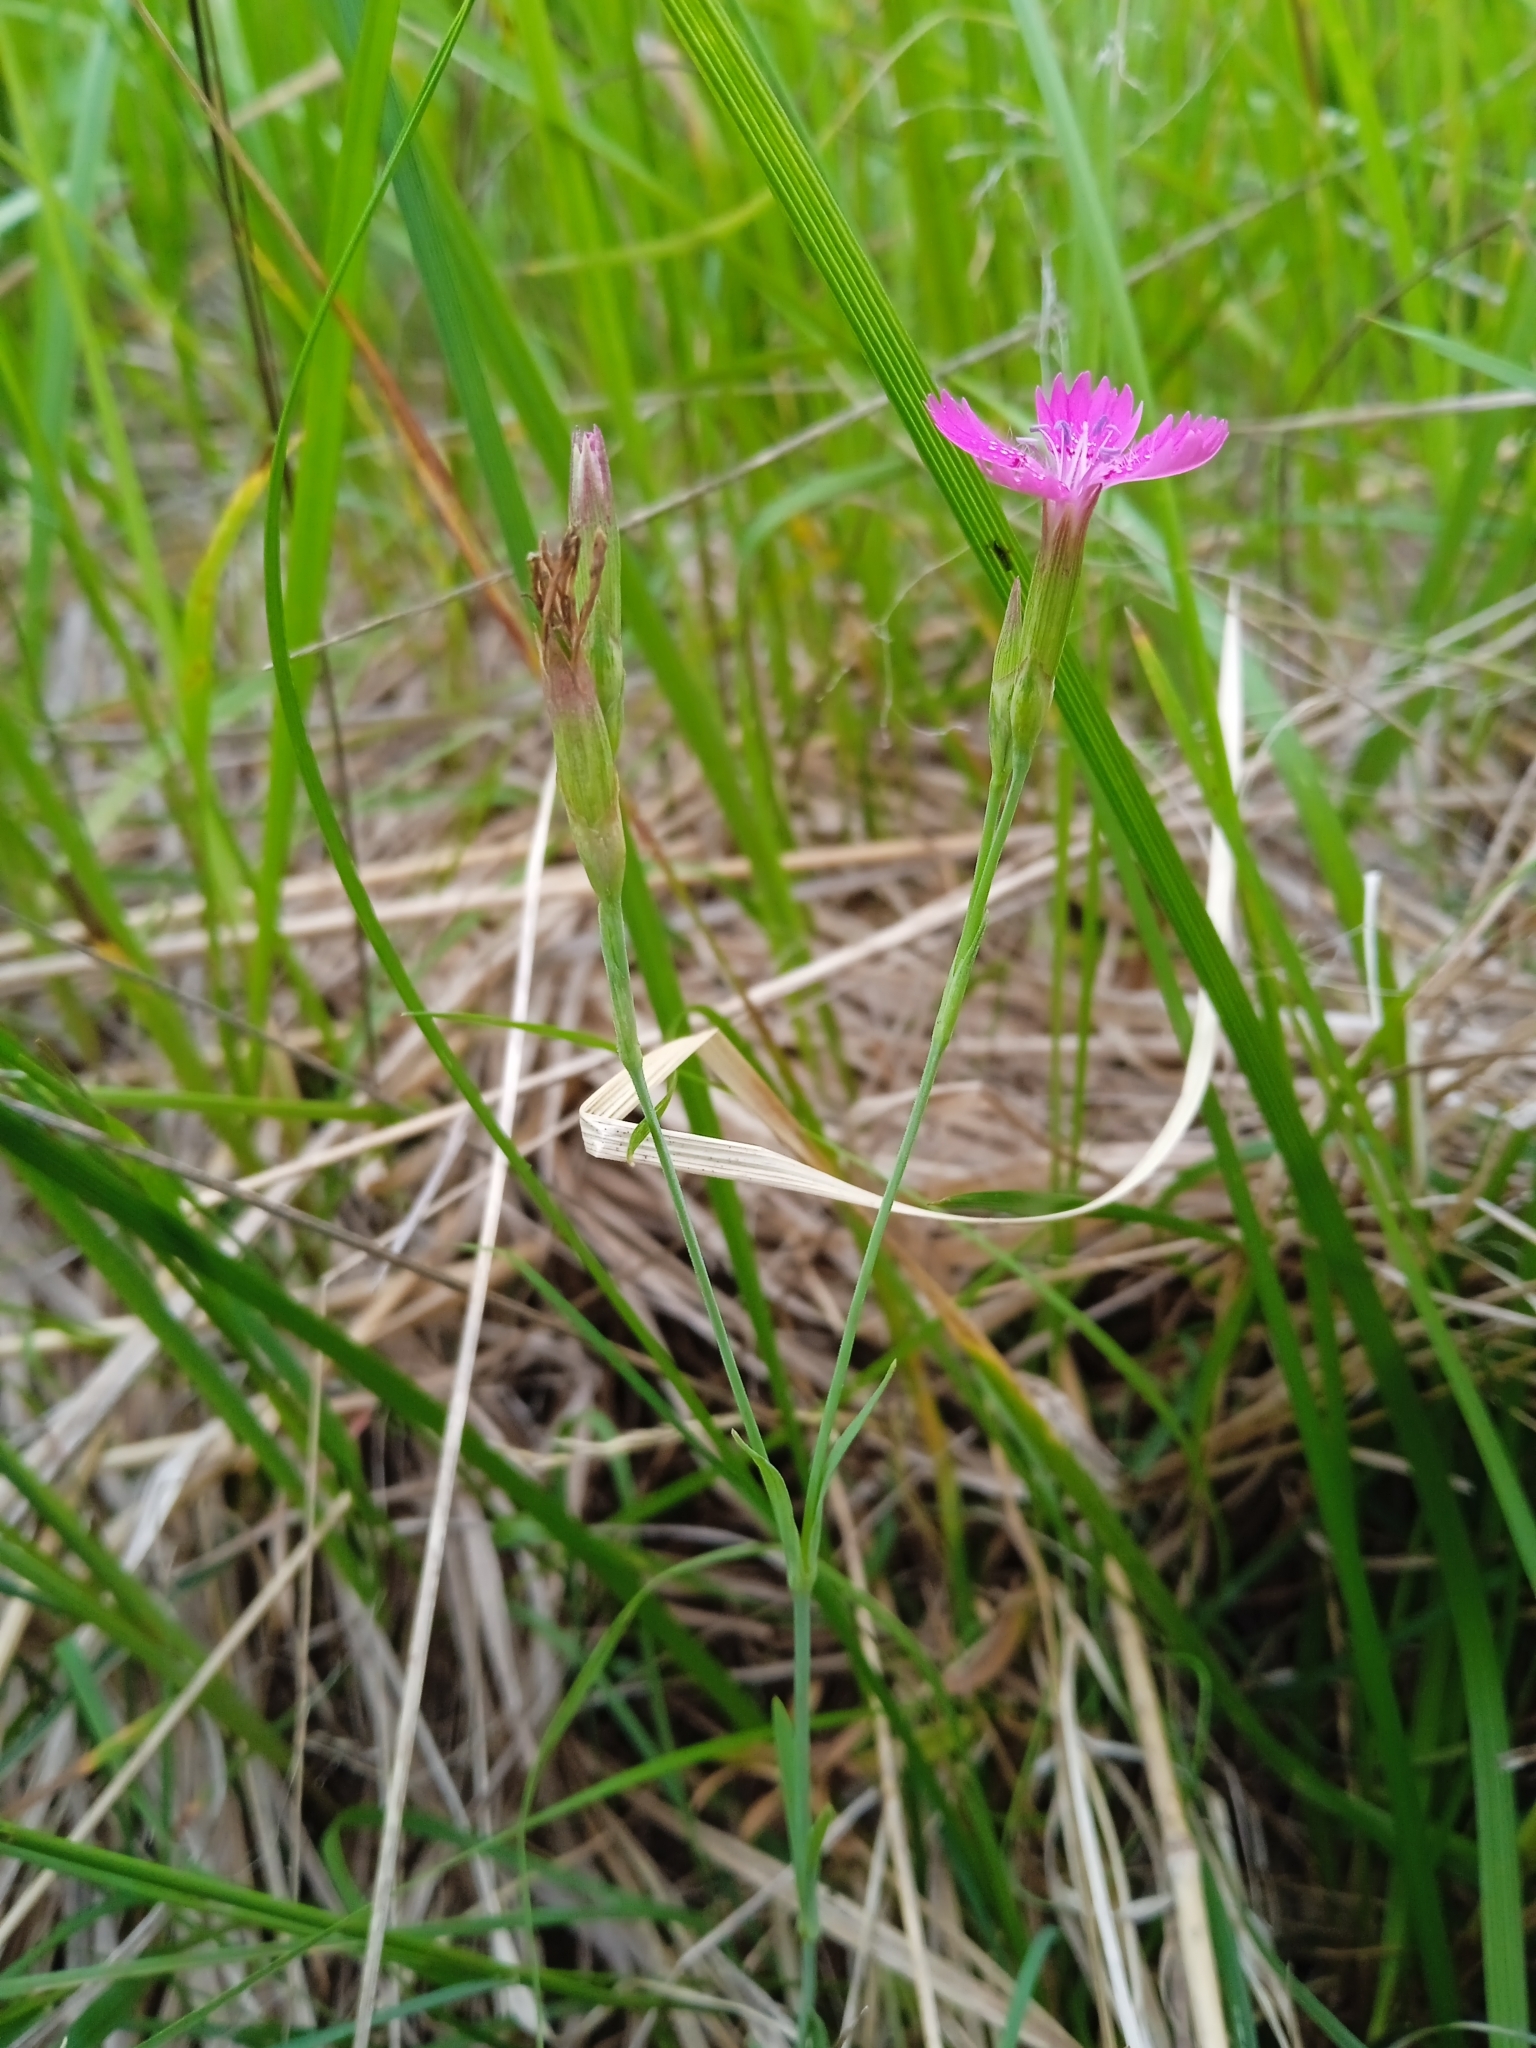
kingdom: Plantae
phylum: Tracheophyta
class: Magnoliopsida
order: Caryophyllales
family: Caryophyllaceae
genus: Dianthus
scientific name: Dianthus deltoides
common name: Maiden pink
